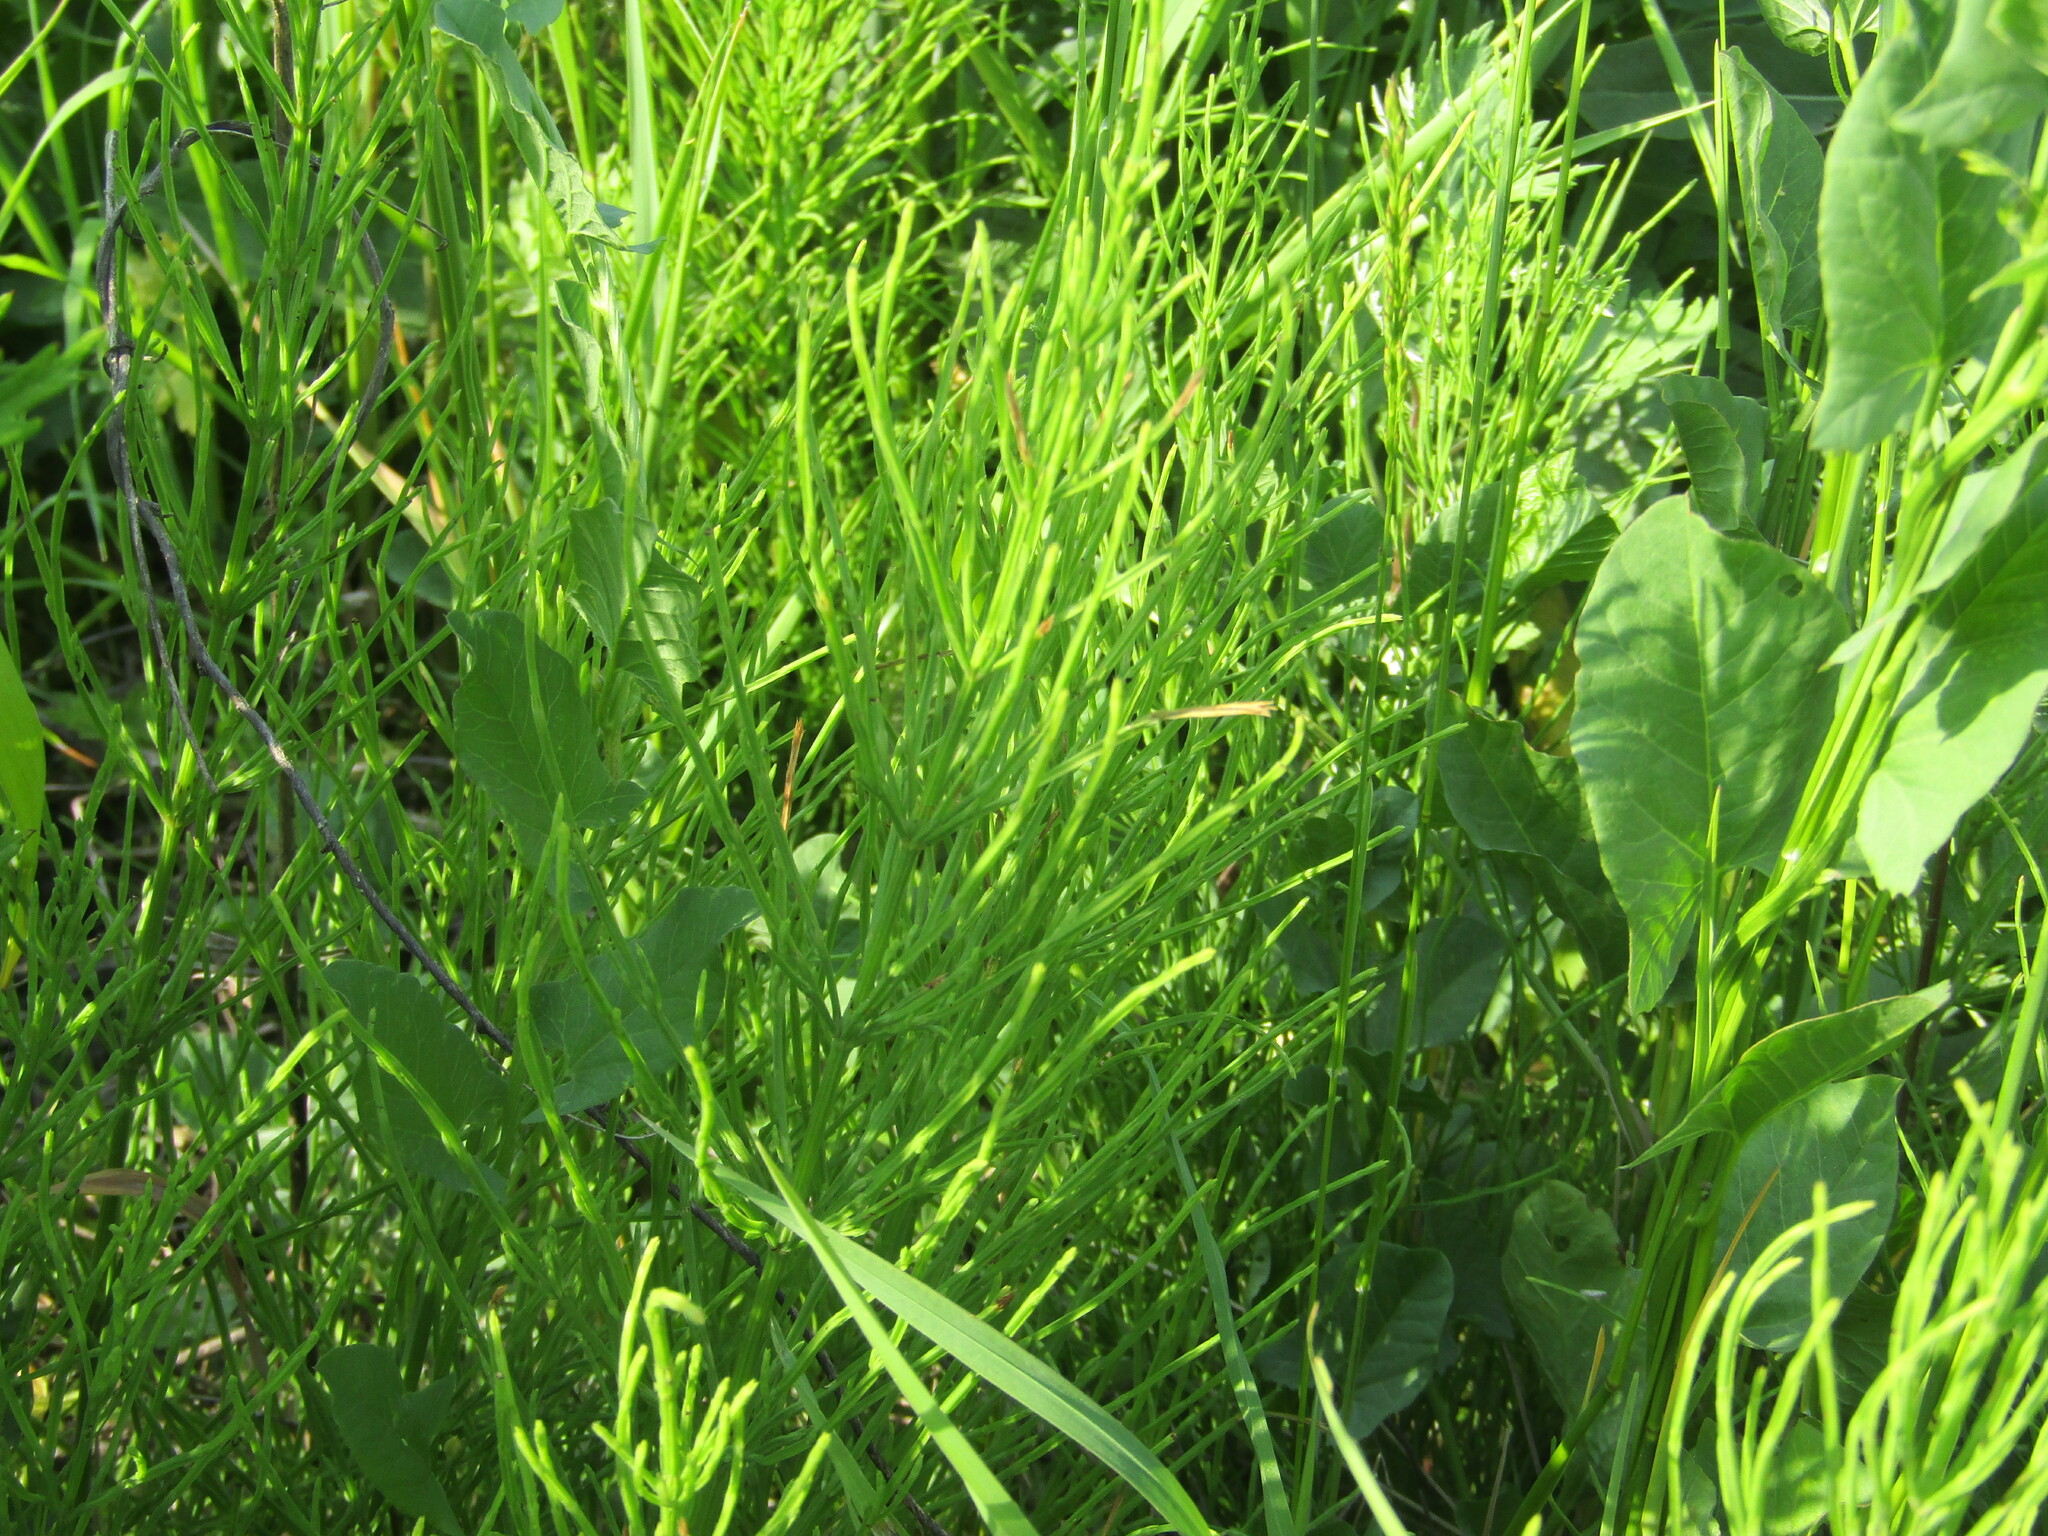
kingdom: Plantae
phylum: Tracheophyta
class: Polypodiopsida
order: Equisetales
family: Equisetaceae
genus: Equisetum
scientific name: Equisetum arvense
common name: Field horsetail
